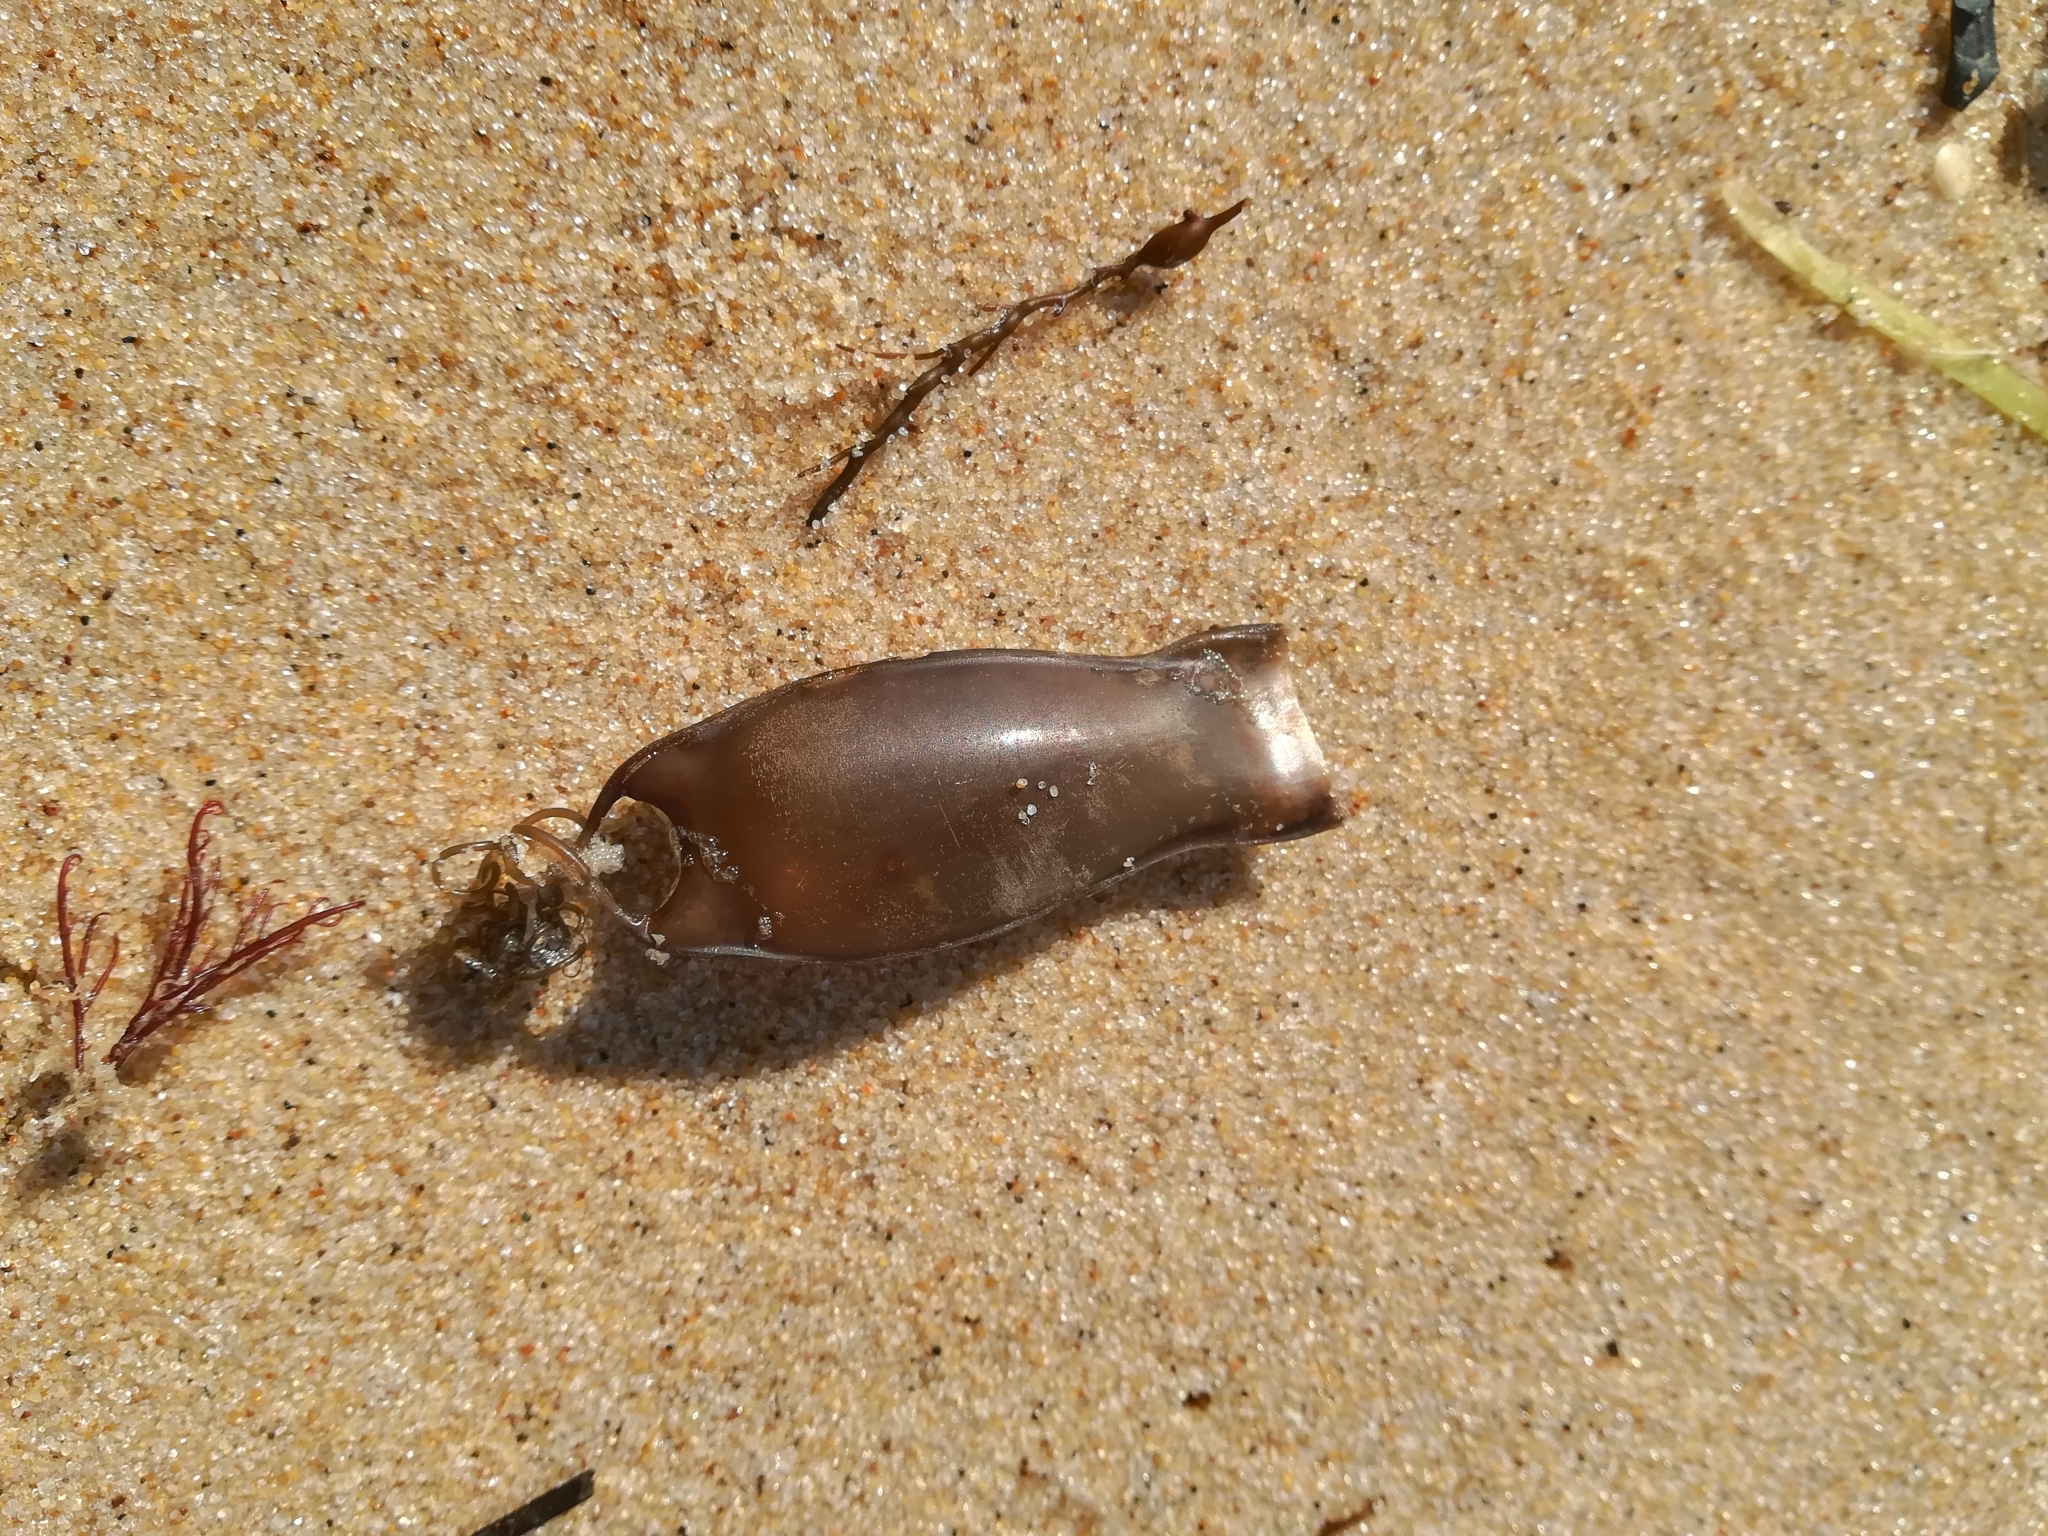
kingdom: Animalia
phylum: Chordata
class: Elasmobranchii
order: Carcharhiniformes
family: Scyliorhinidae
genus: Scyliorhinus
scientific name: Scyliorhinus canicula
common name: Lesser spotted dogfish
